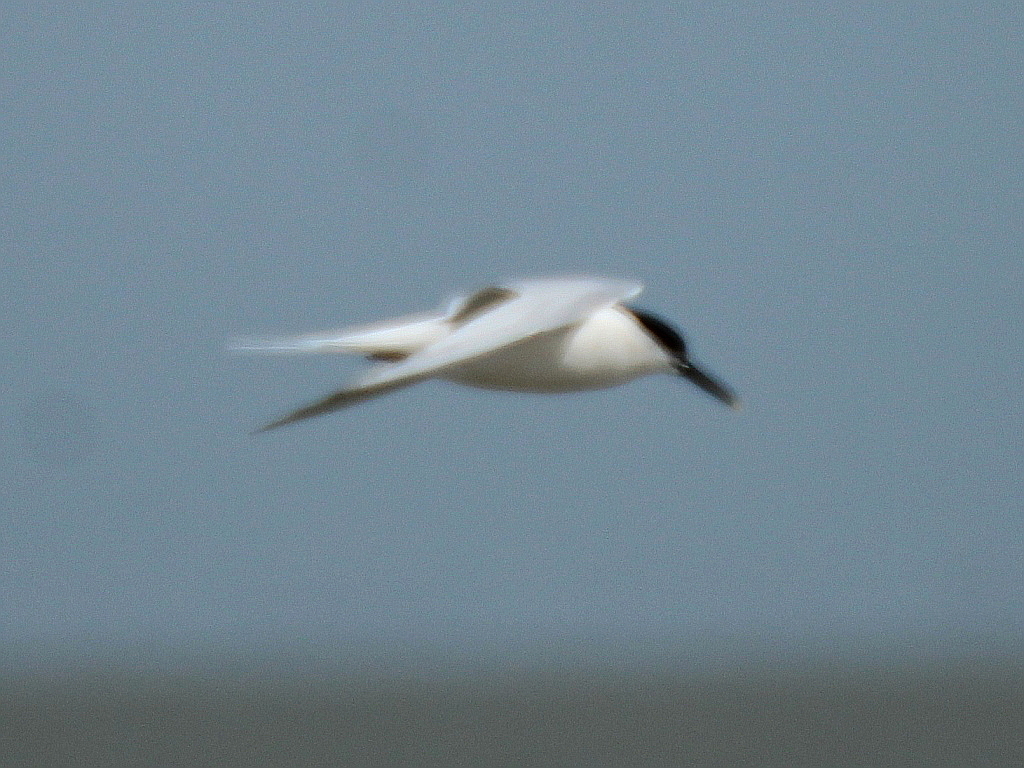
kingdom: Animalia
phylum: Chordata
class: Aves
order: Charadriiformes
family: Laridae
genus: Thalasseus
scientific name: Thalasseus sandvicensis
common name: Sandwich tern
